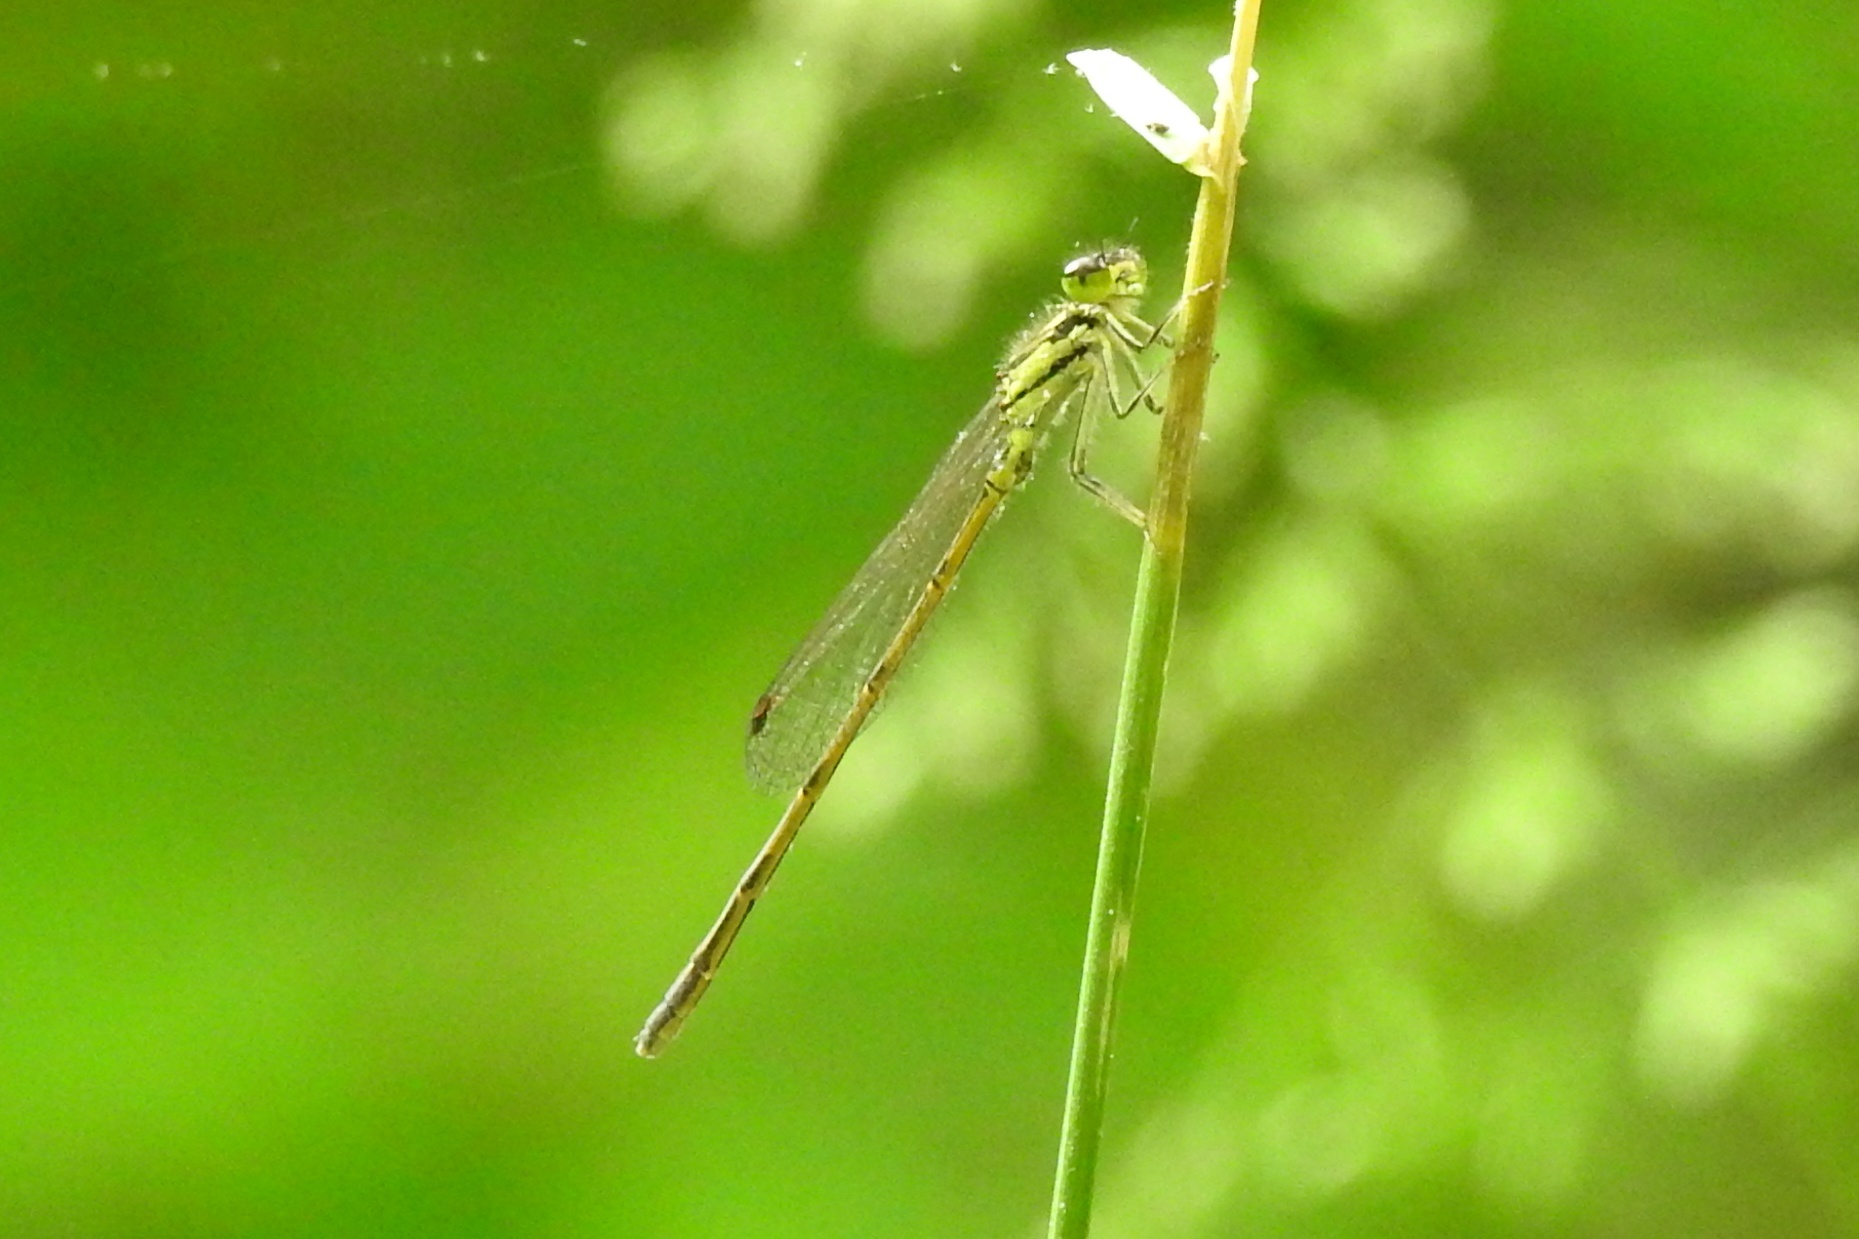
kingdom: Animalia
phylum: Arthropoda
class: Insecta
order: Odonata
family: Coenagrionidae
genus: Ischnura
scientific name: Ischnura posita
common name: Fragile forktail
